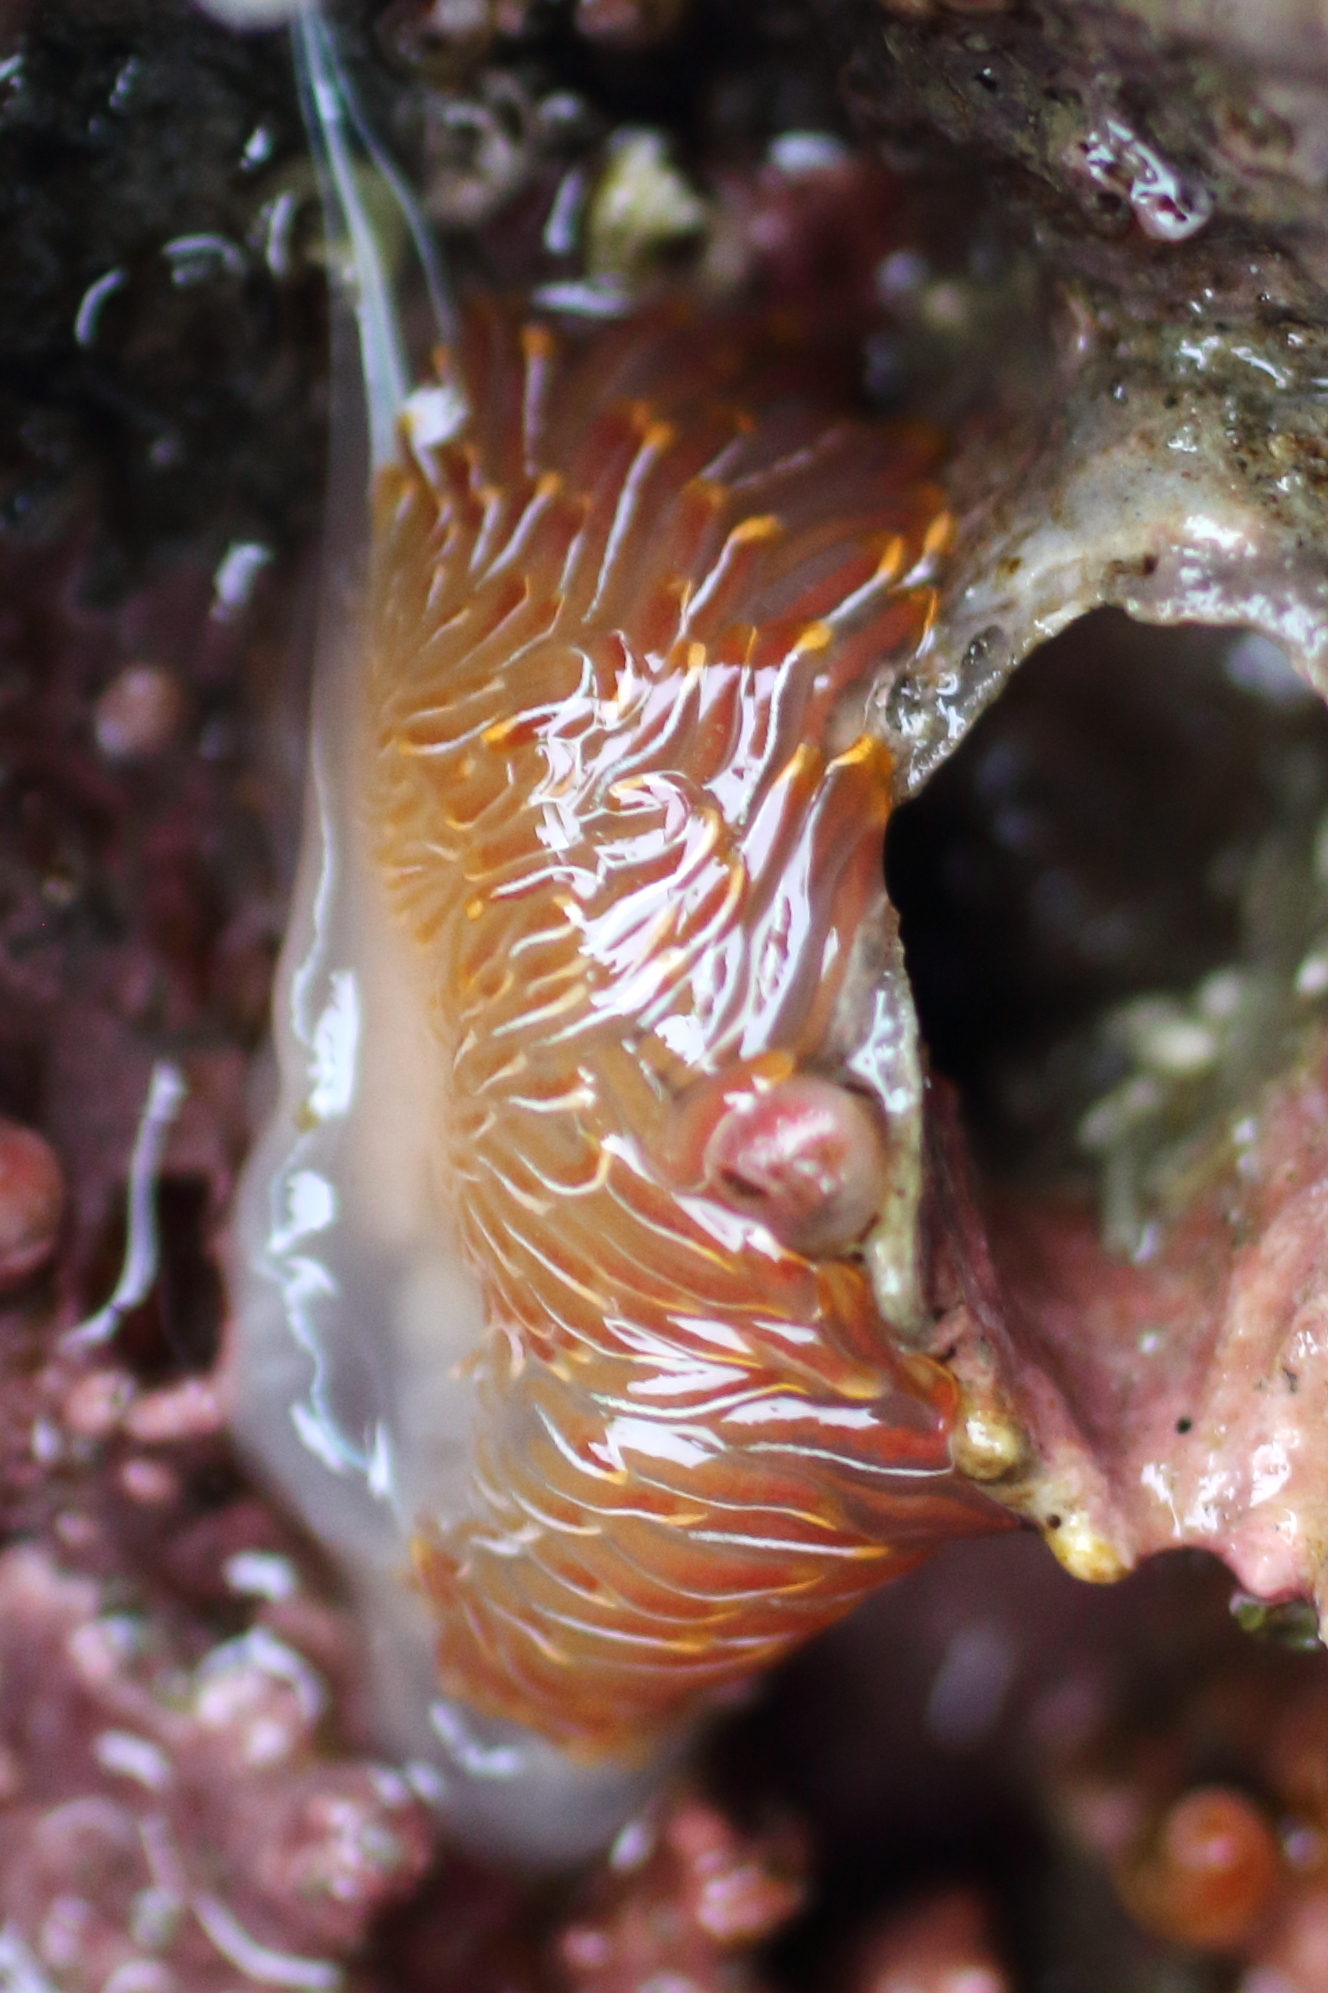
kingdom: Animalia
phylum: Mollusca
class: Gastropoda
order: Nudibranchia
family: Myrrhinidae
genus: Hermissenda
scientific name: Hermissenda crassicornis
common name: Hermissenda
